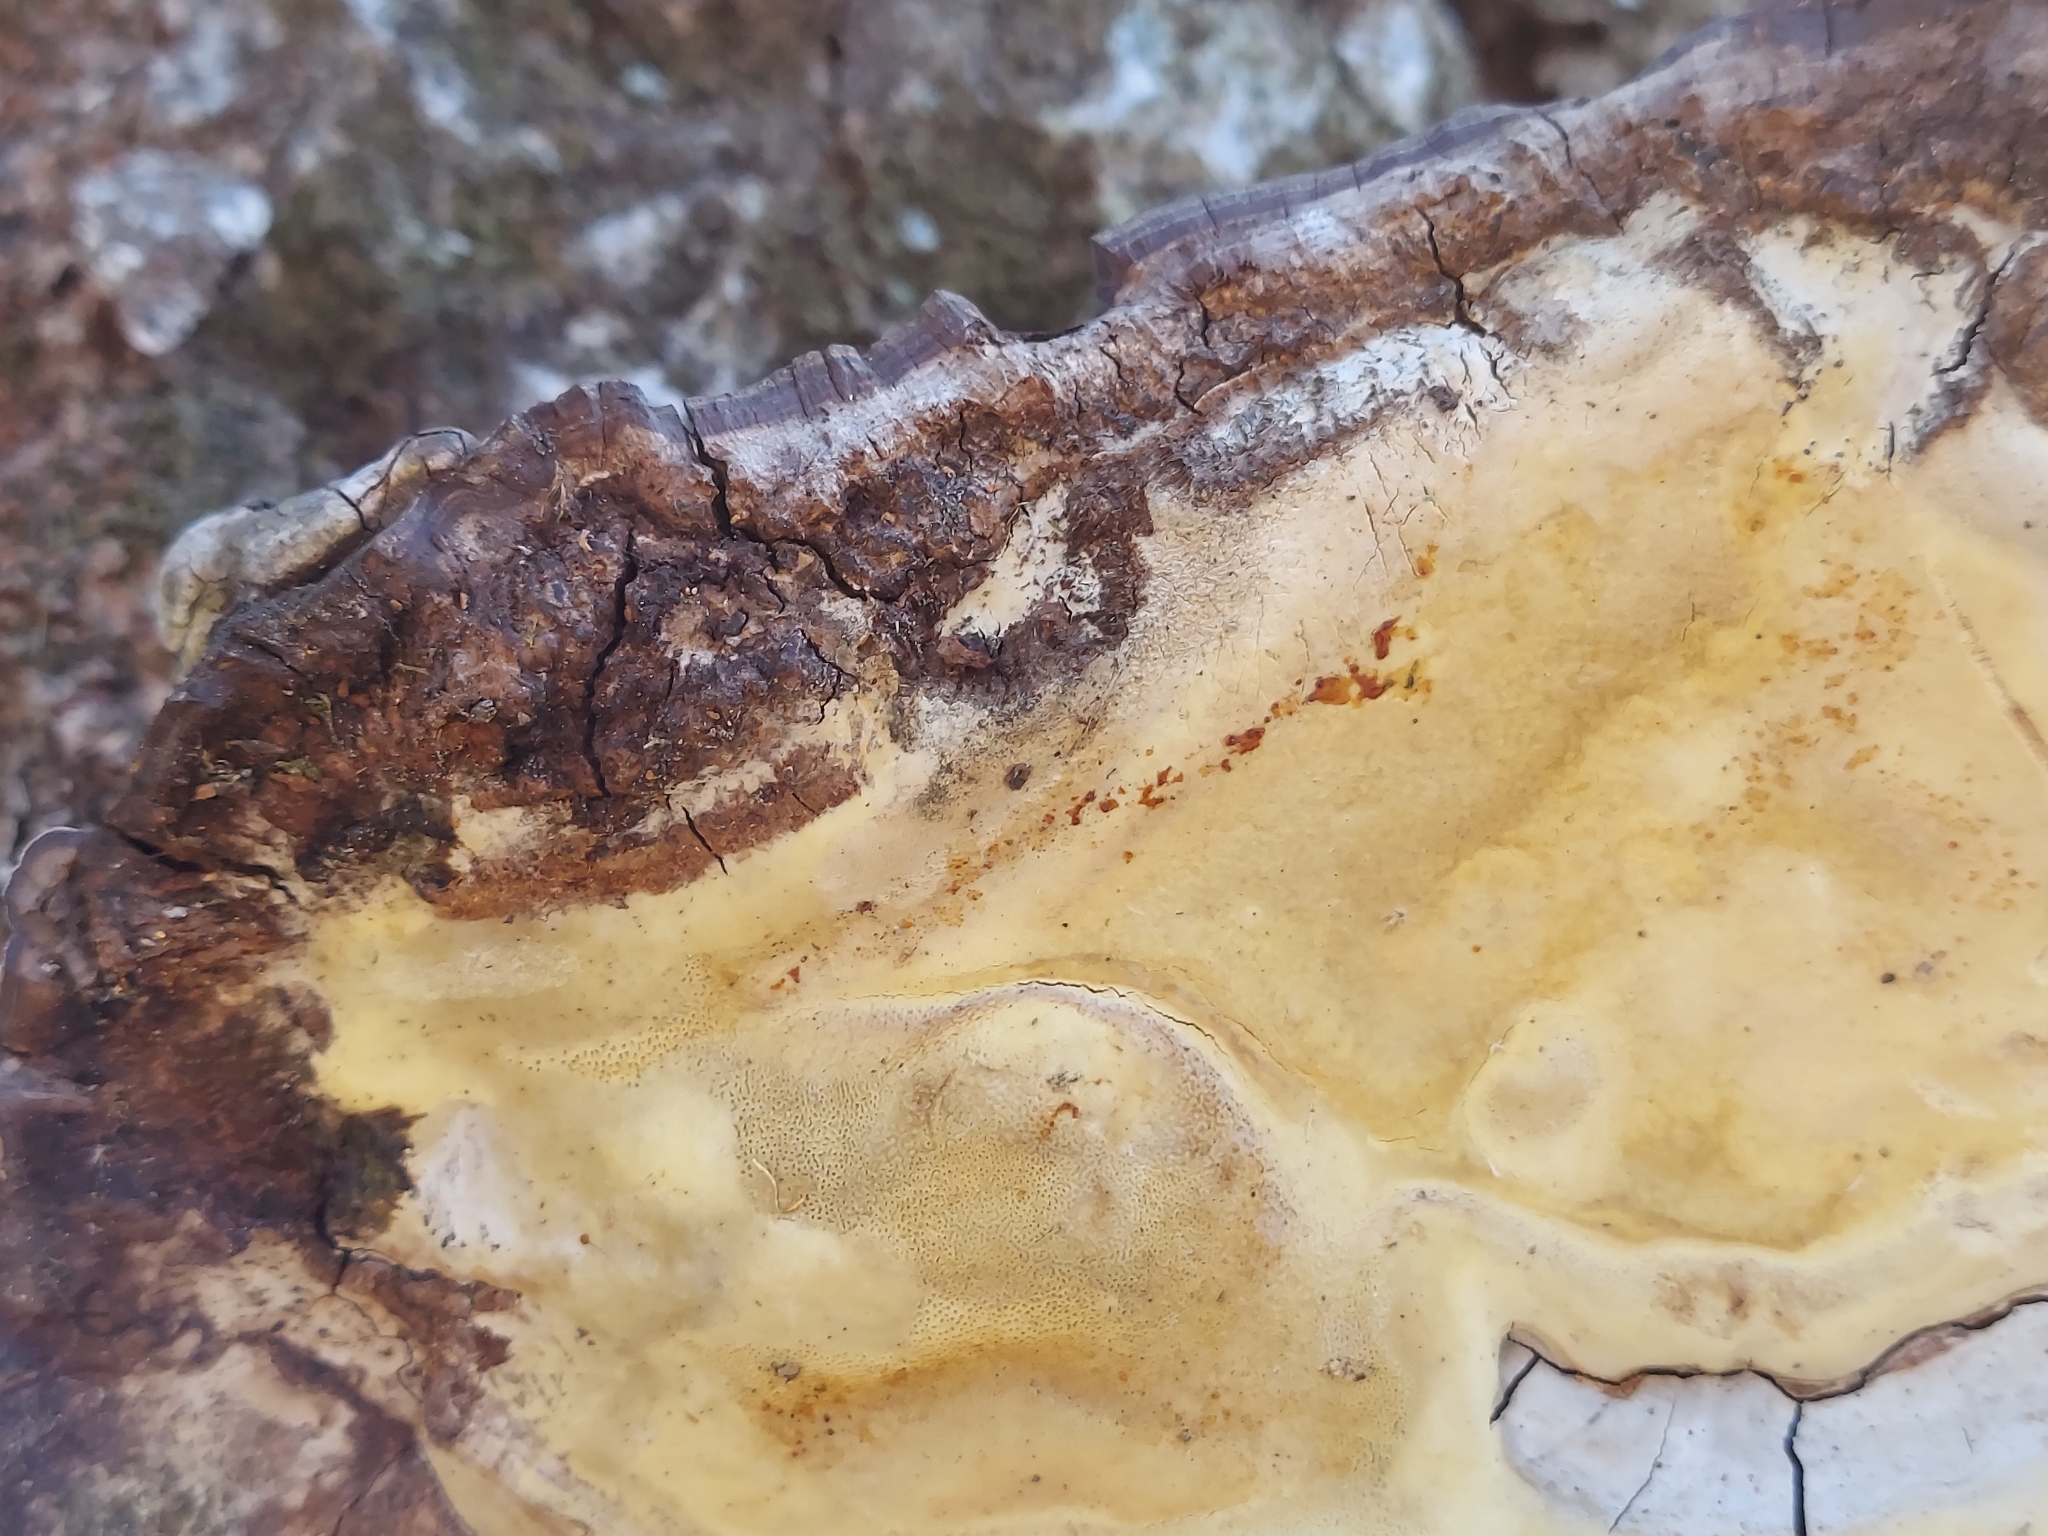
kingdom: Fungi
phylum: Basidiomycota
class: Agaricomycetes
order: Polyporales
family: Polyporaceae
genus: Ganoderma
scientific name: Ganoderma applanatum
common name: Artist's bracket
